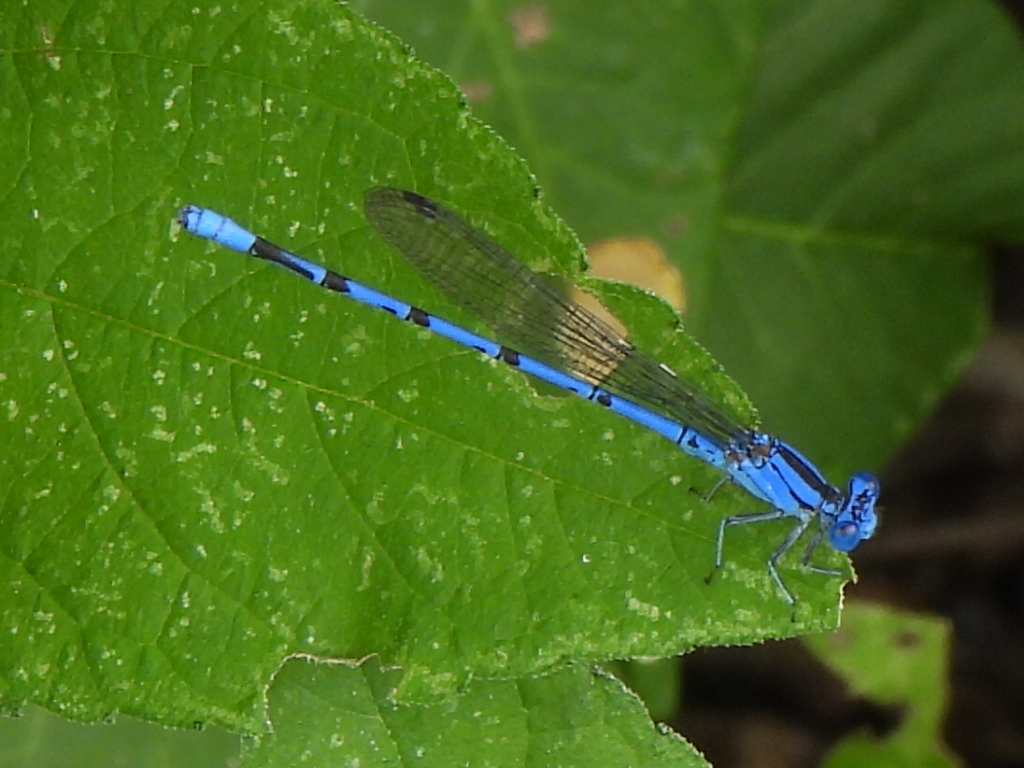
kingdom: Animalia
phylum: Arthropoda
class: Insecta
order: Odonata
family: Coenagrionidae
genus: Argia
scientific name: Argia funebris
